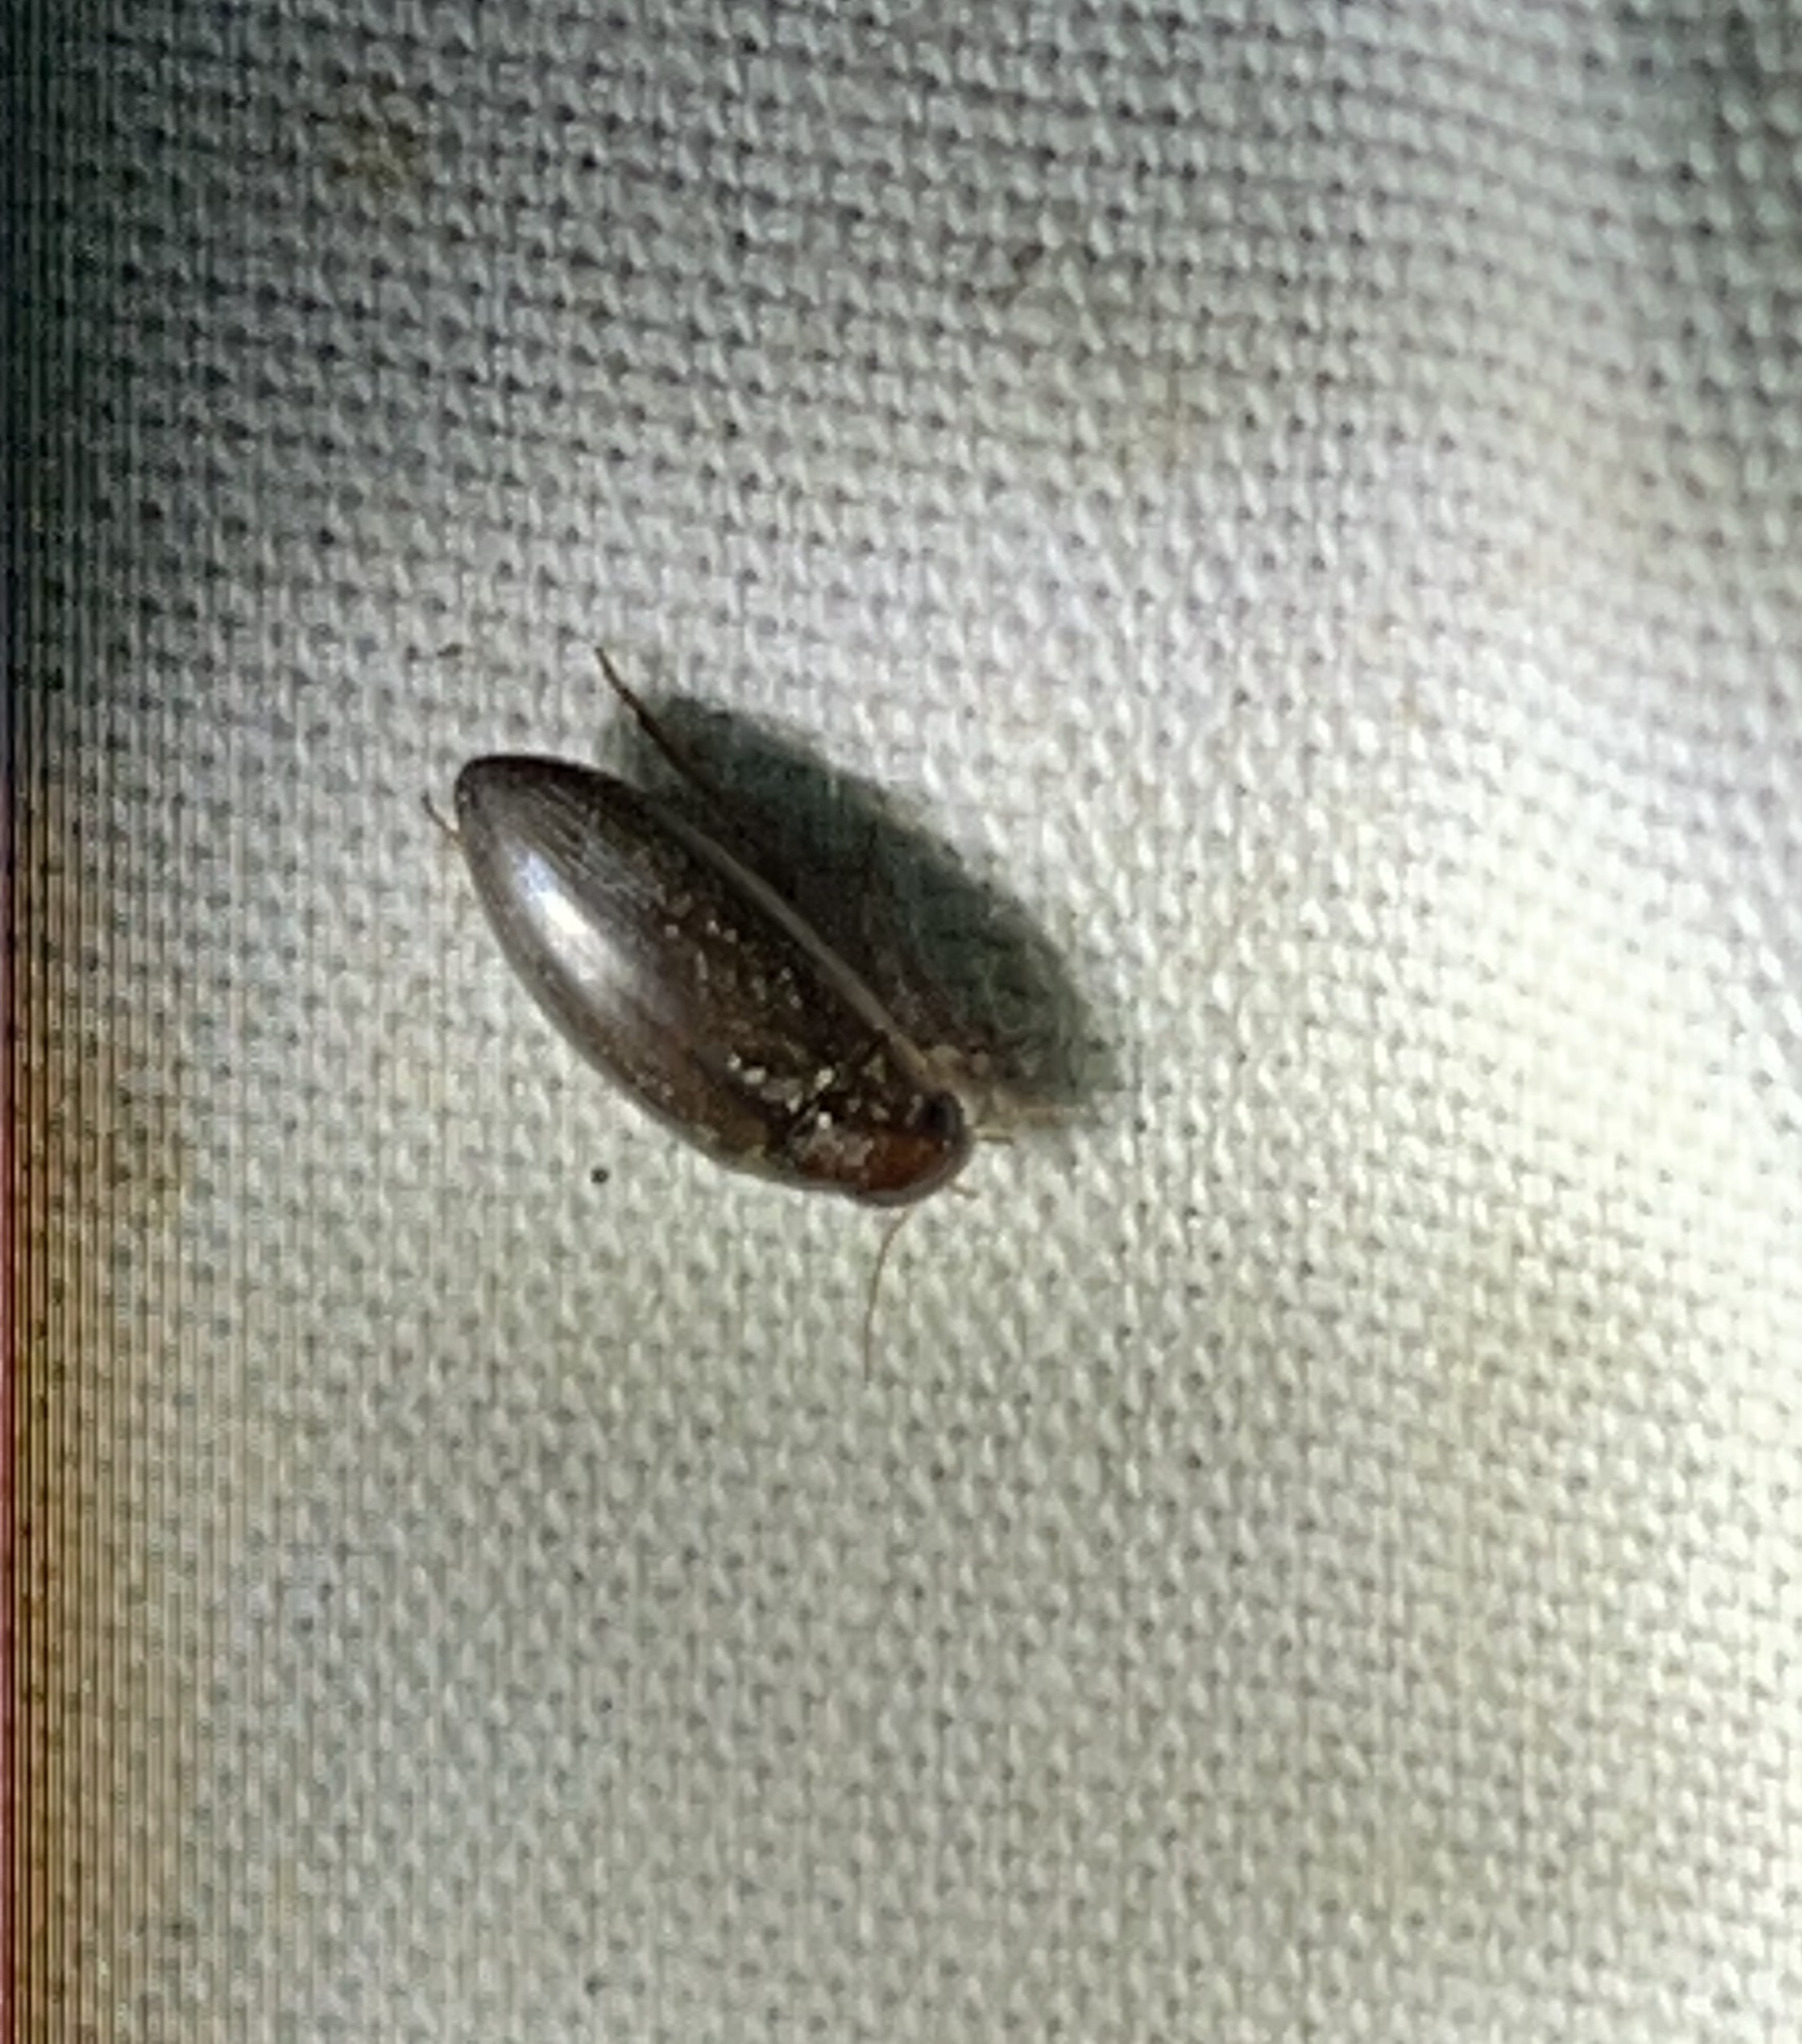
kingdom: Animalia
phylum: Arthropoda
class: Insecta
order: Coleoptera
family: Dytiscidae
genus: Copelatus
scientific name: Copelatus
